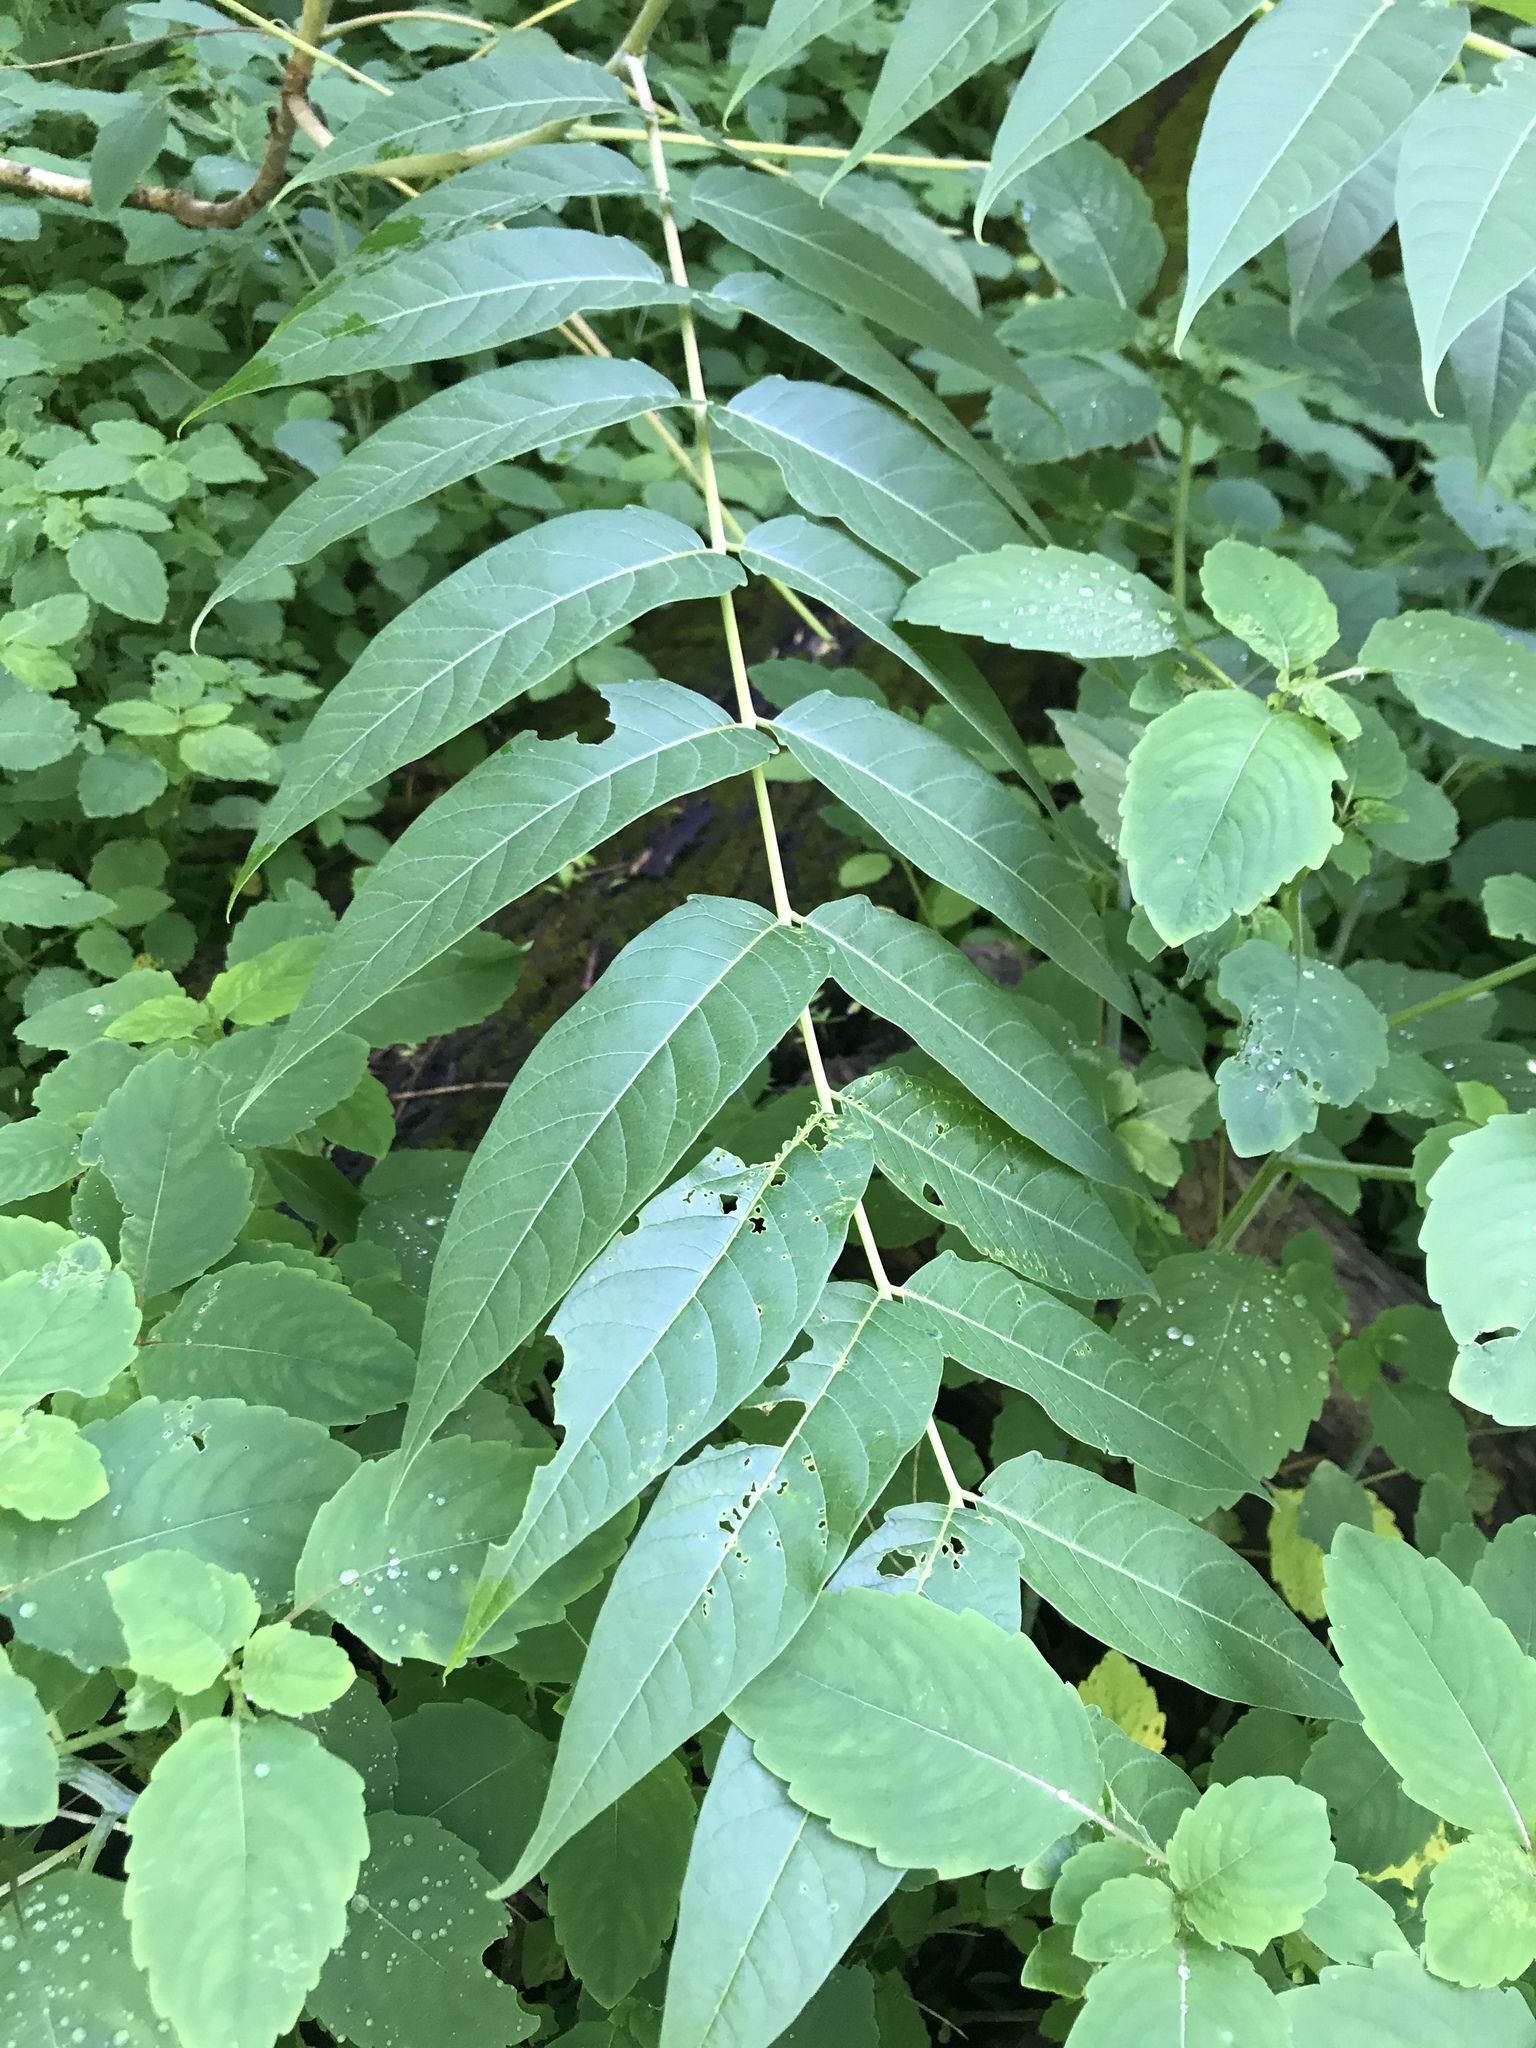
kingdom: Plantae
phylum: Tracheophyta
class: Magnoliopsida
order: Sapindales
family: Simaroubaceae
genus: Ailanthus
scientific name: Ailanthus altissima
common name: Tree-of-heaven
